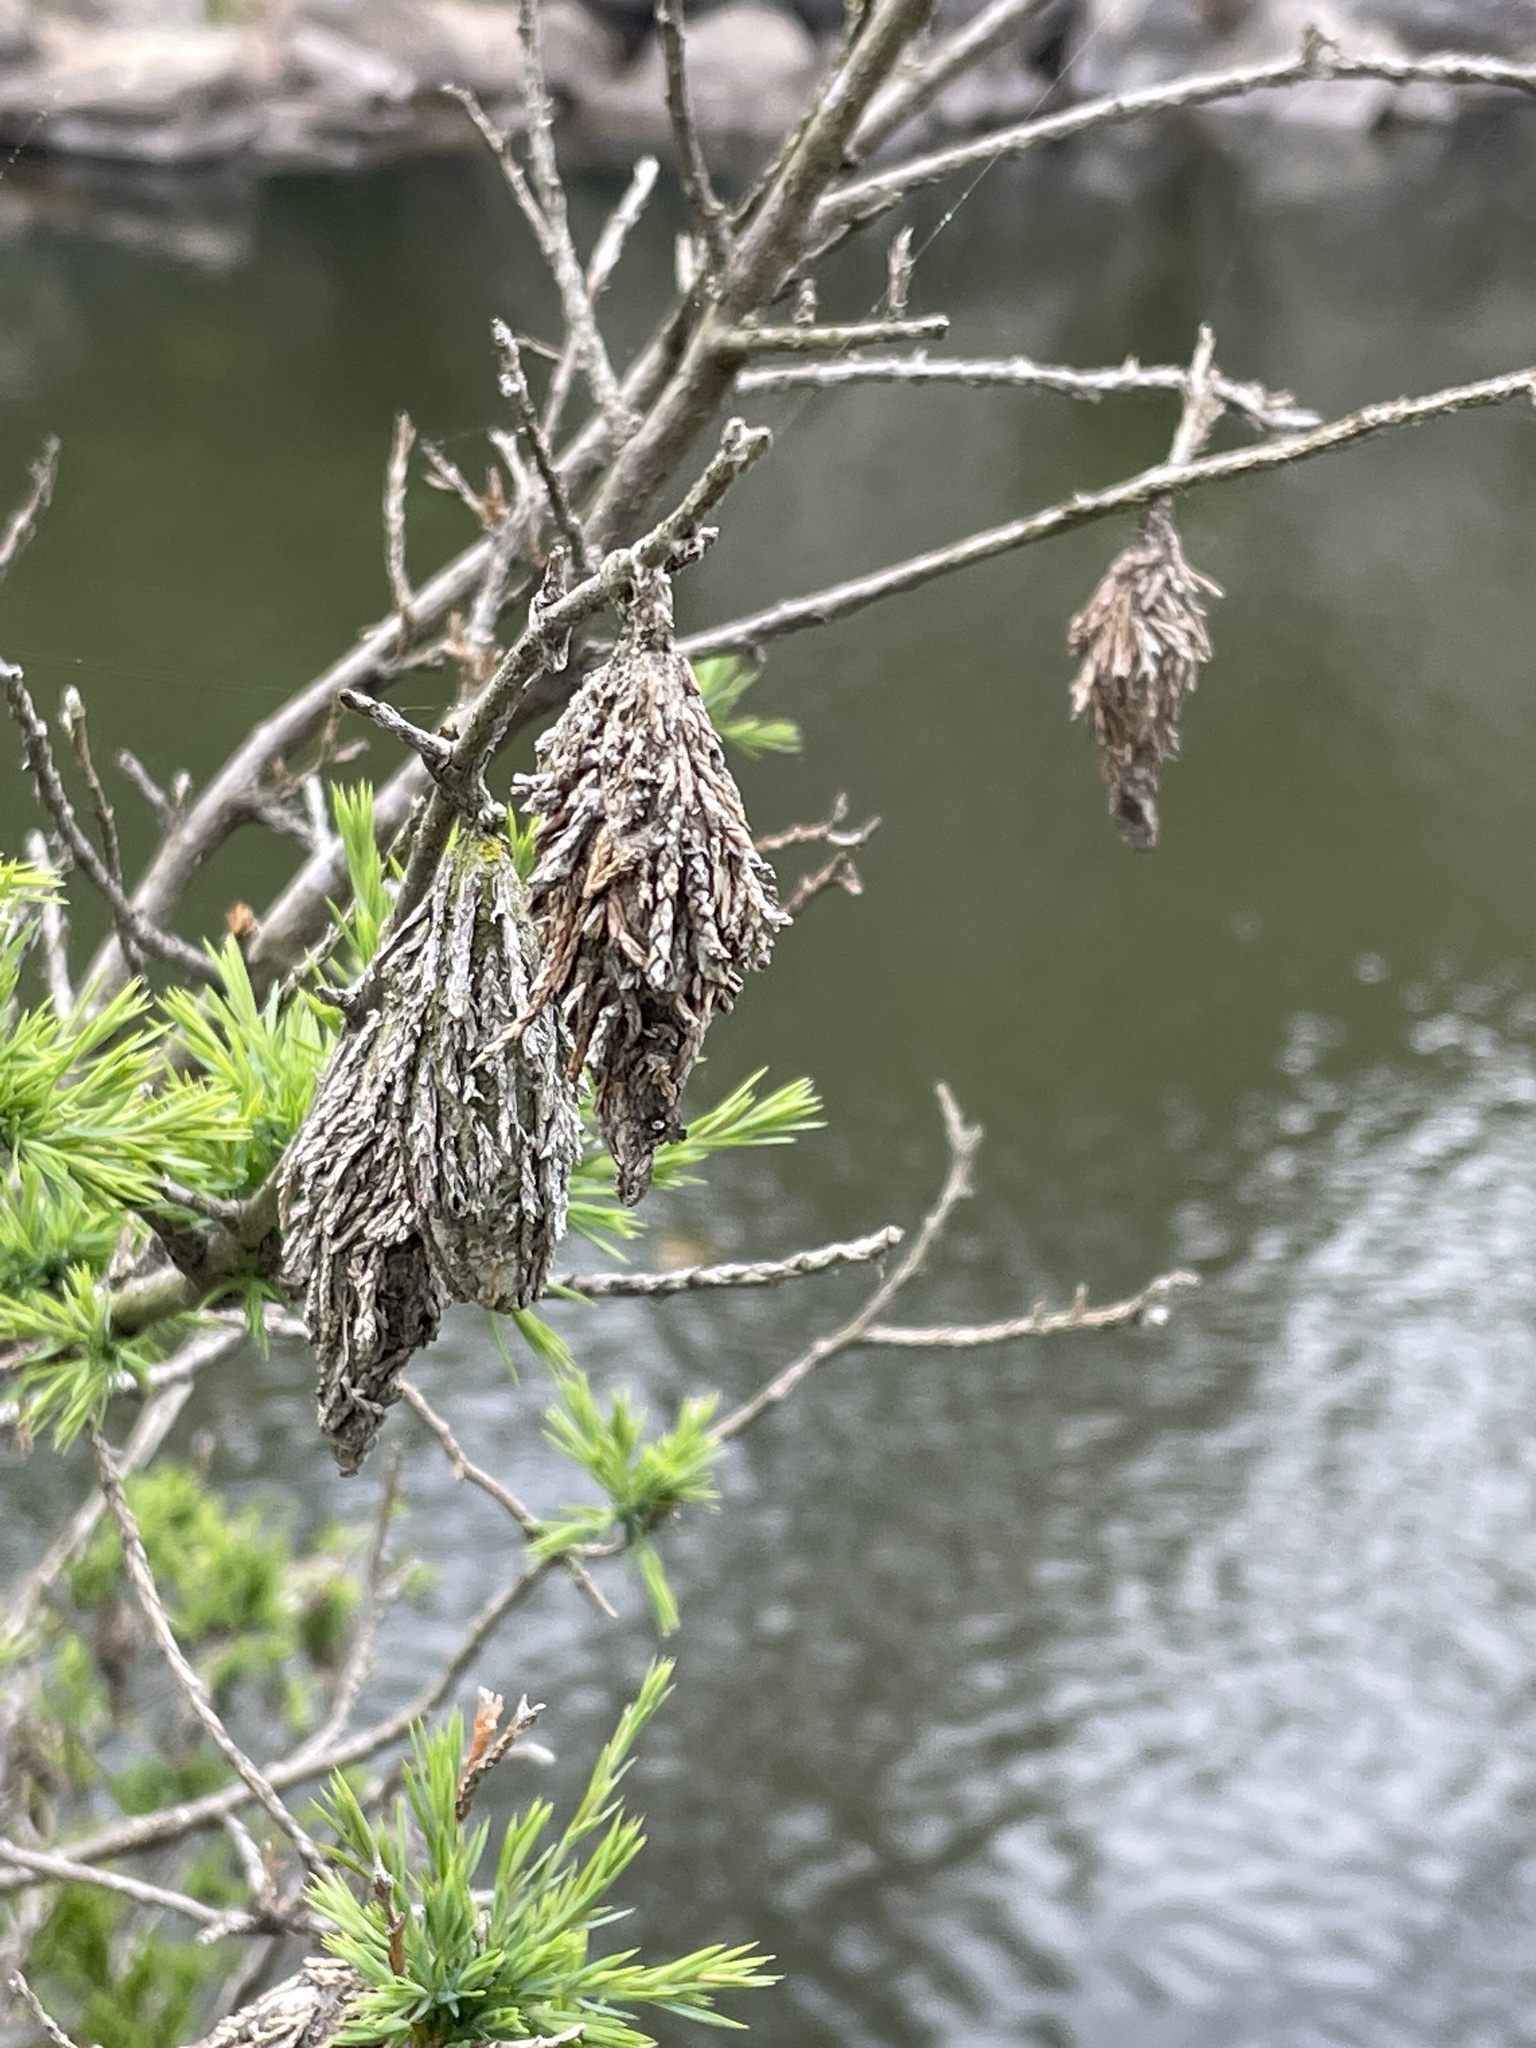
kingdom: Animalia
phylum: Arthropoda
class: Insecta
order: Lepidoptera
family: Psychidae
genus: Thyridopteryx
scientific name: Thyridopteryx ephemeraeformis
